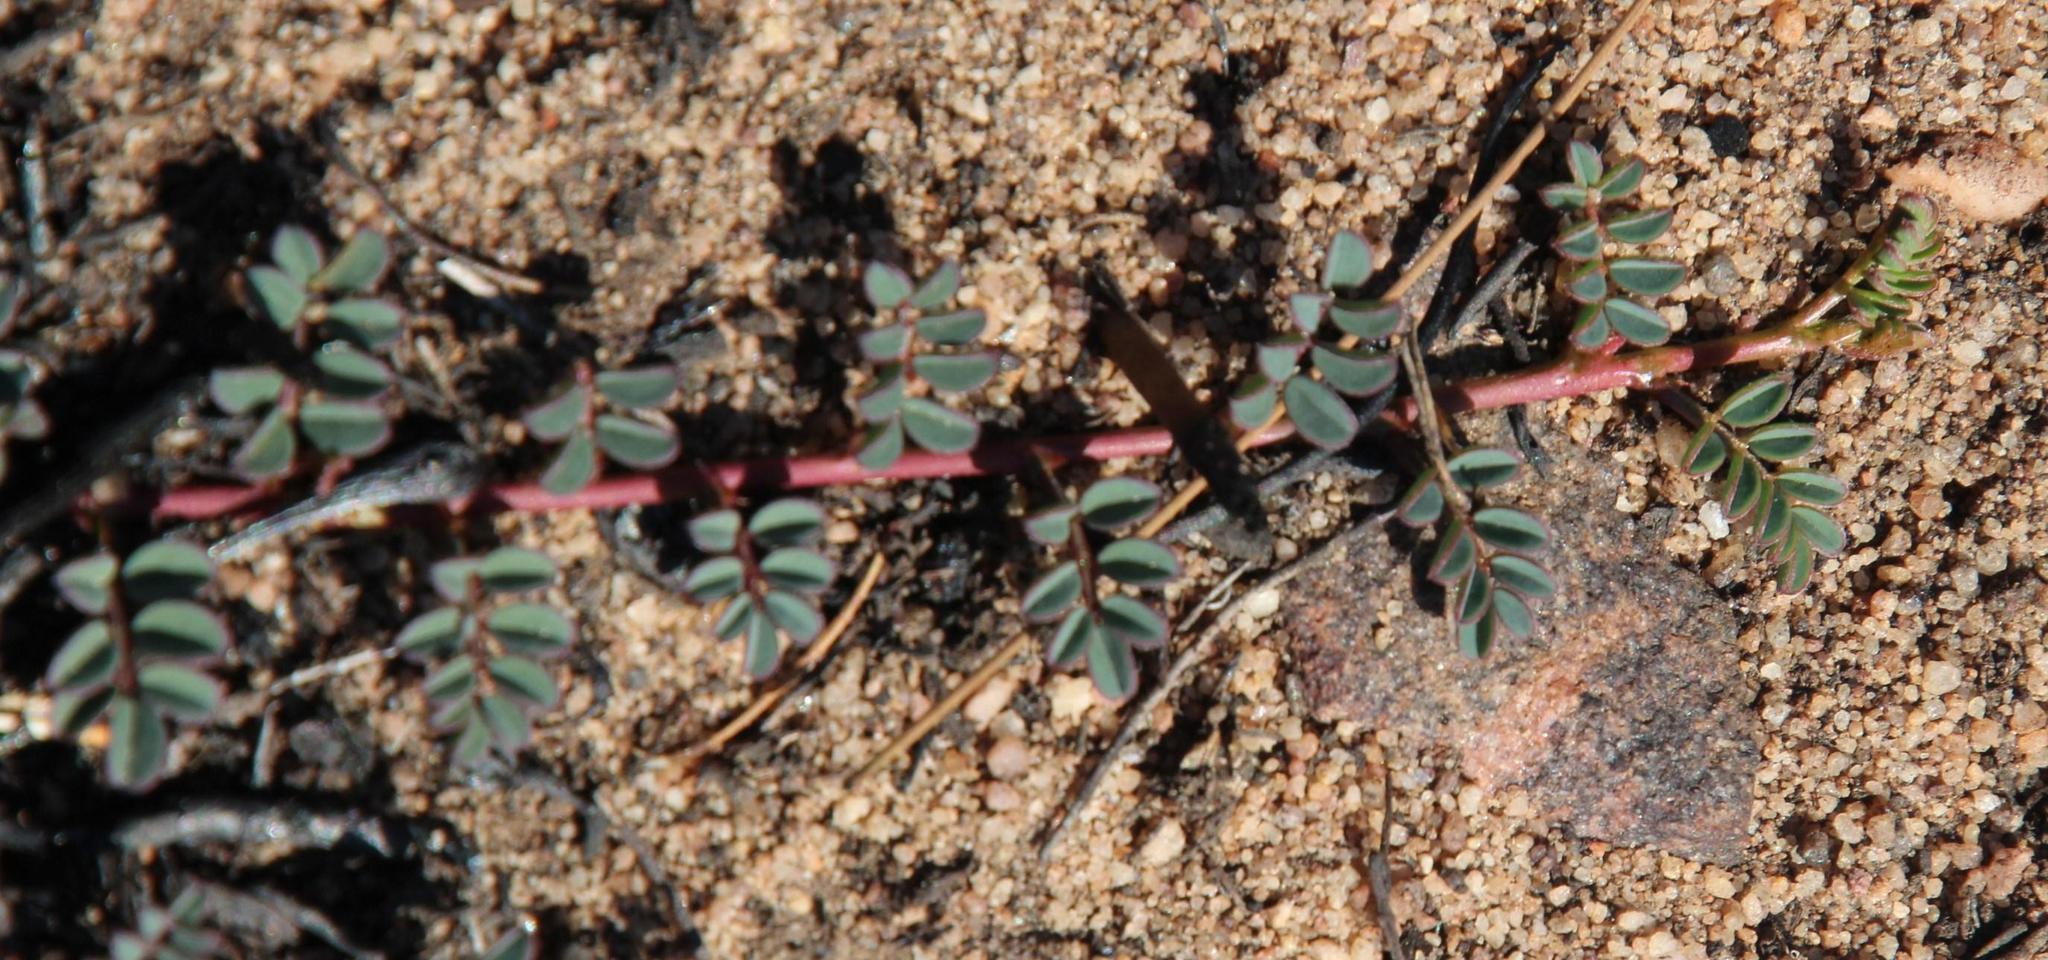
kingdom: Plantae
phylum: Tracheophyta
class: Magnoliopsida
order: Fabales
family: Fabaceae
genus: Indigofera
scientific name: Indigofera humifusa
